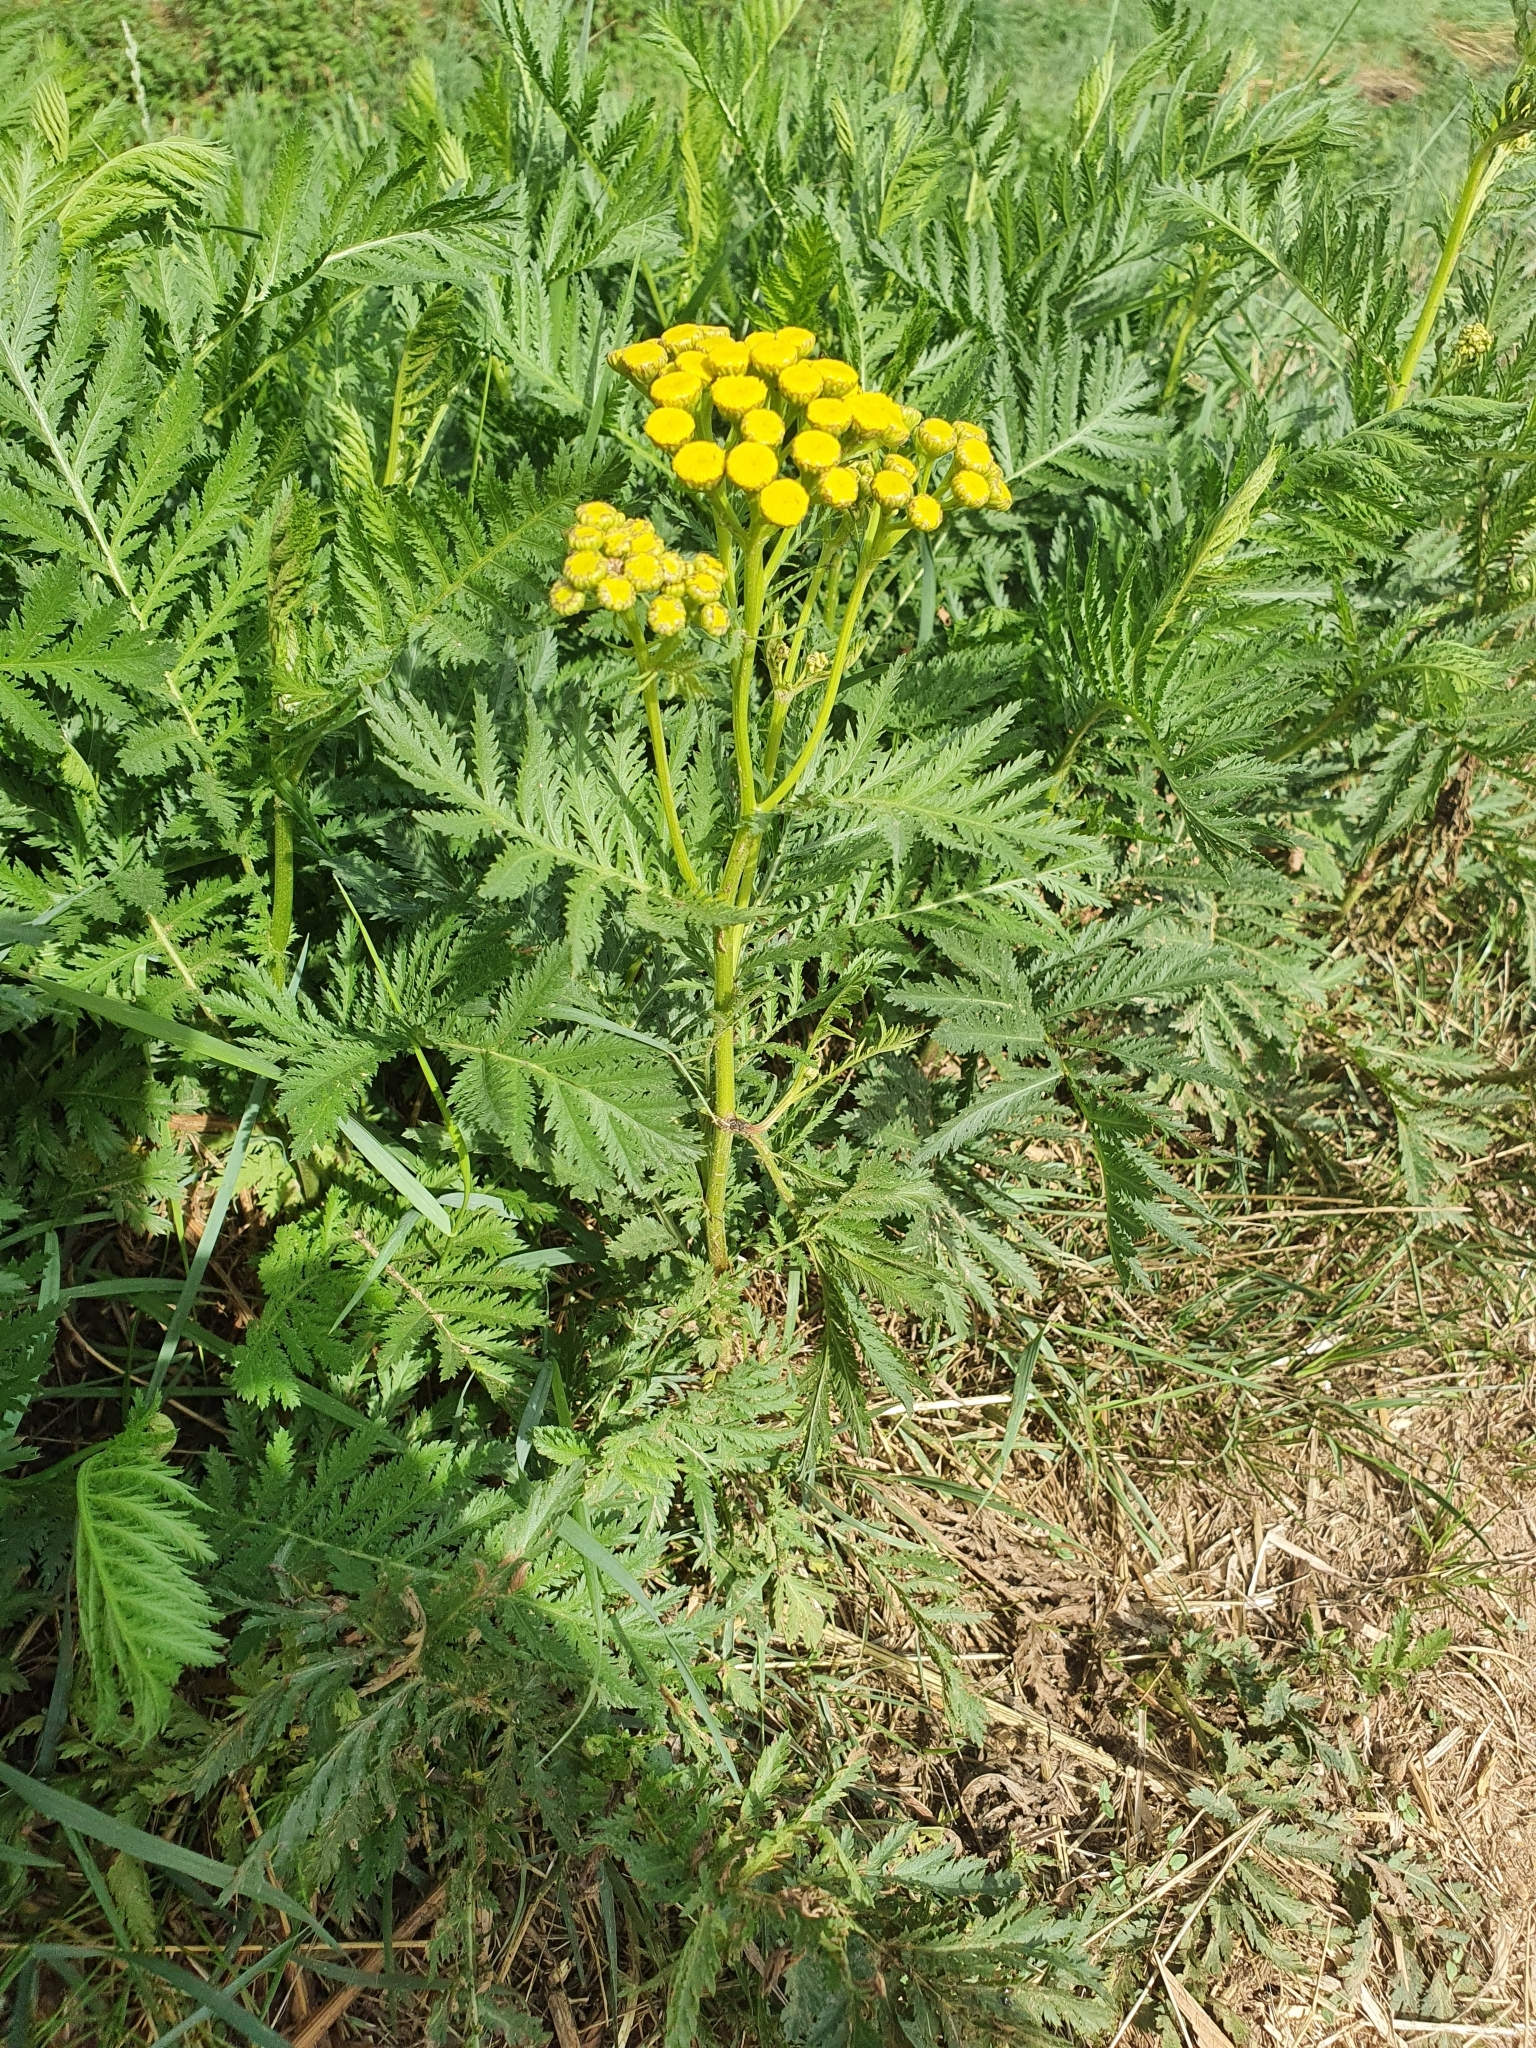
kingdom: Plantae
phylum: Tracheophyta
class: Magnoliopsida
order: Asterales
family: Asteraceae
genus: Tanacetum
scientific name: Tanacetum vulgare
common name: Common tansy
